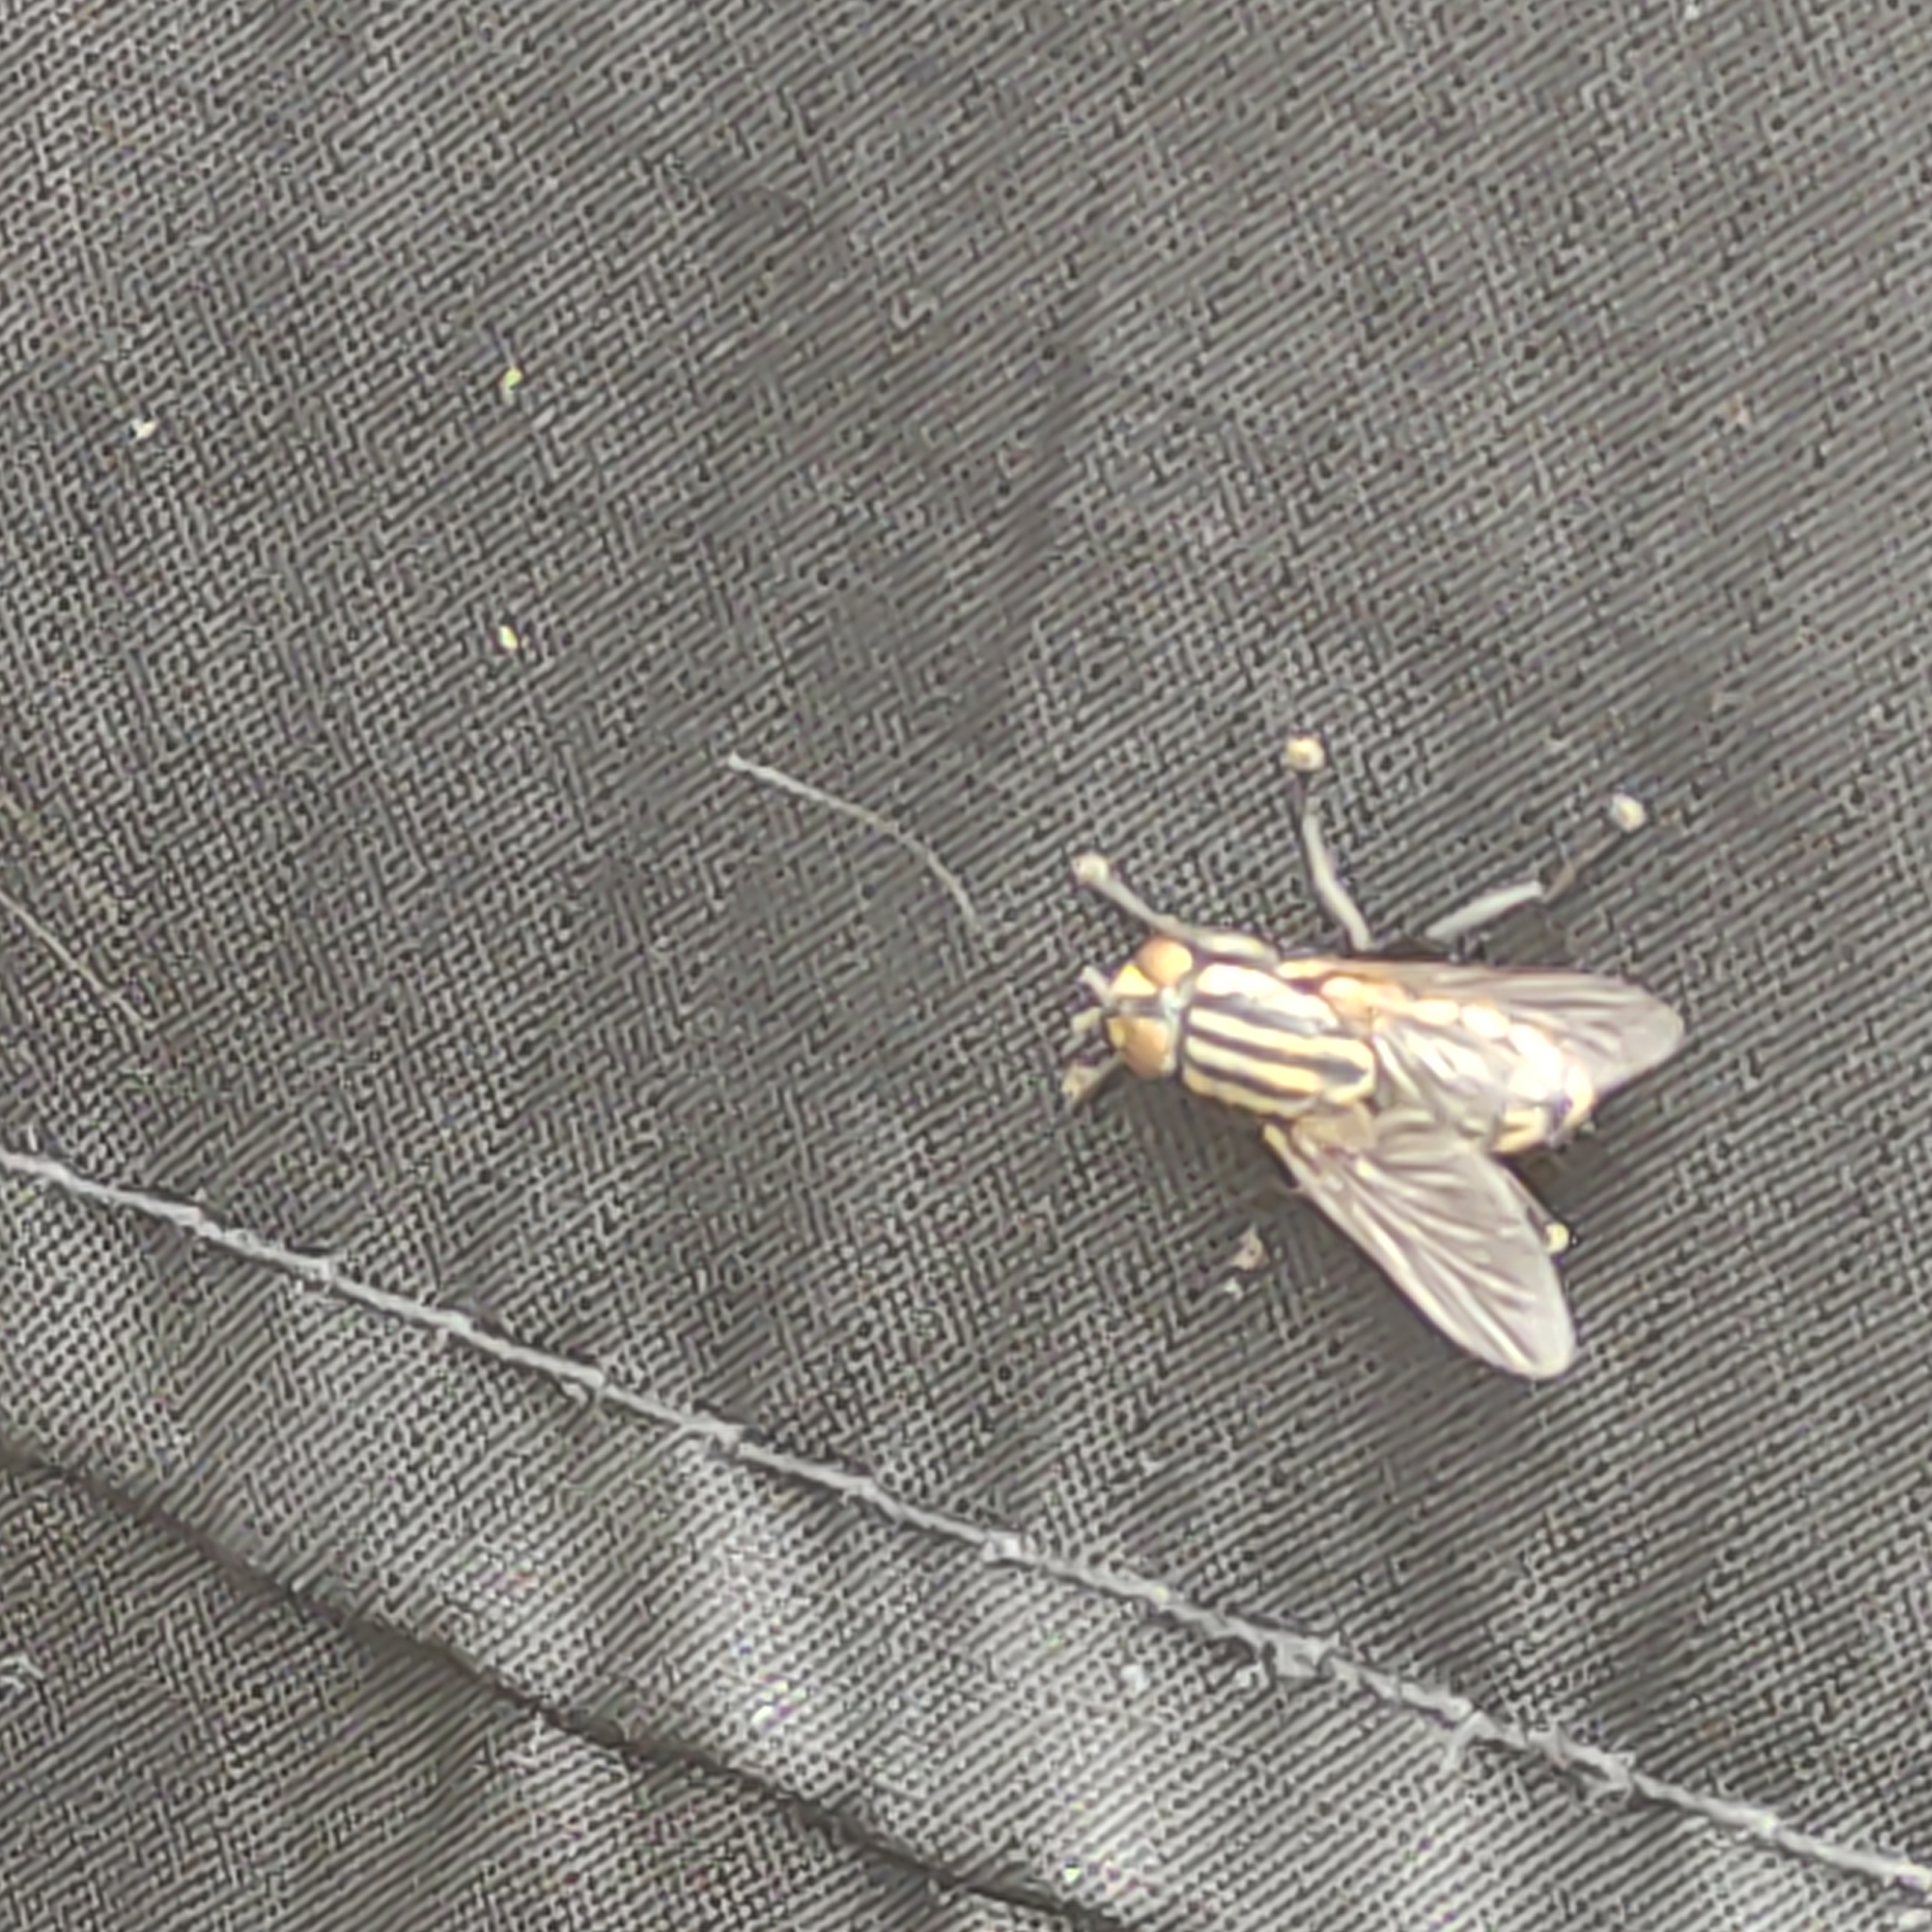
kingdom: Animalia
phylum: Arthropoda
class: Insecta
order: Diptera
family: Sarcophagidae
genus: Oxysarcodexia
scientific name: Oxysarcodexia varia
